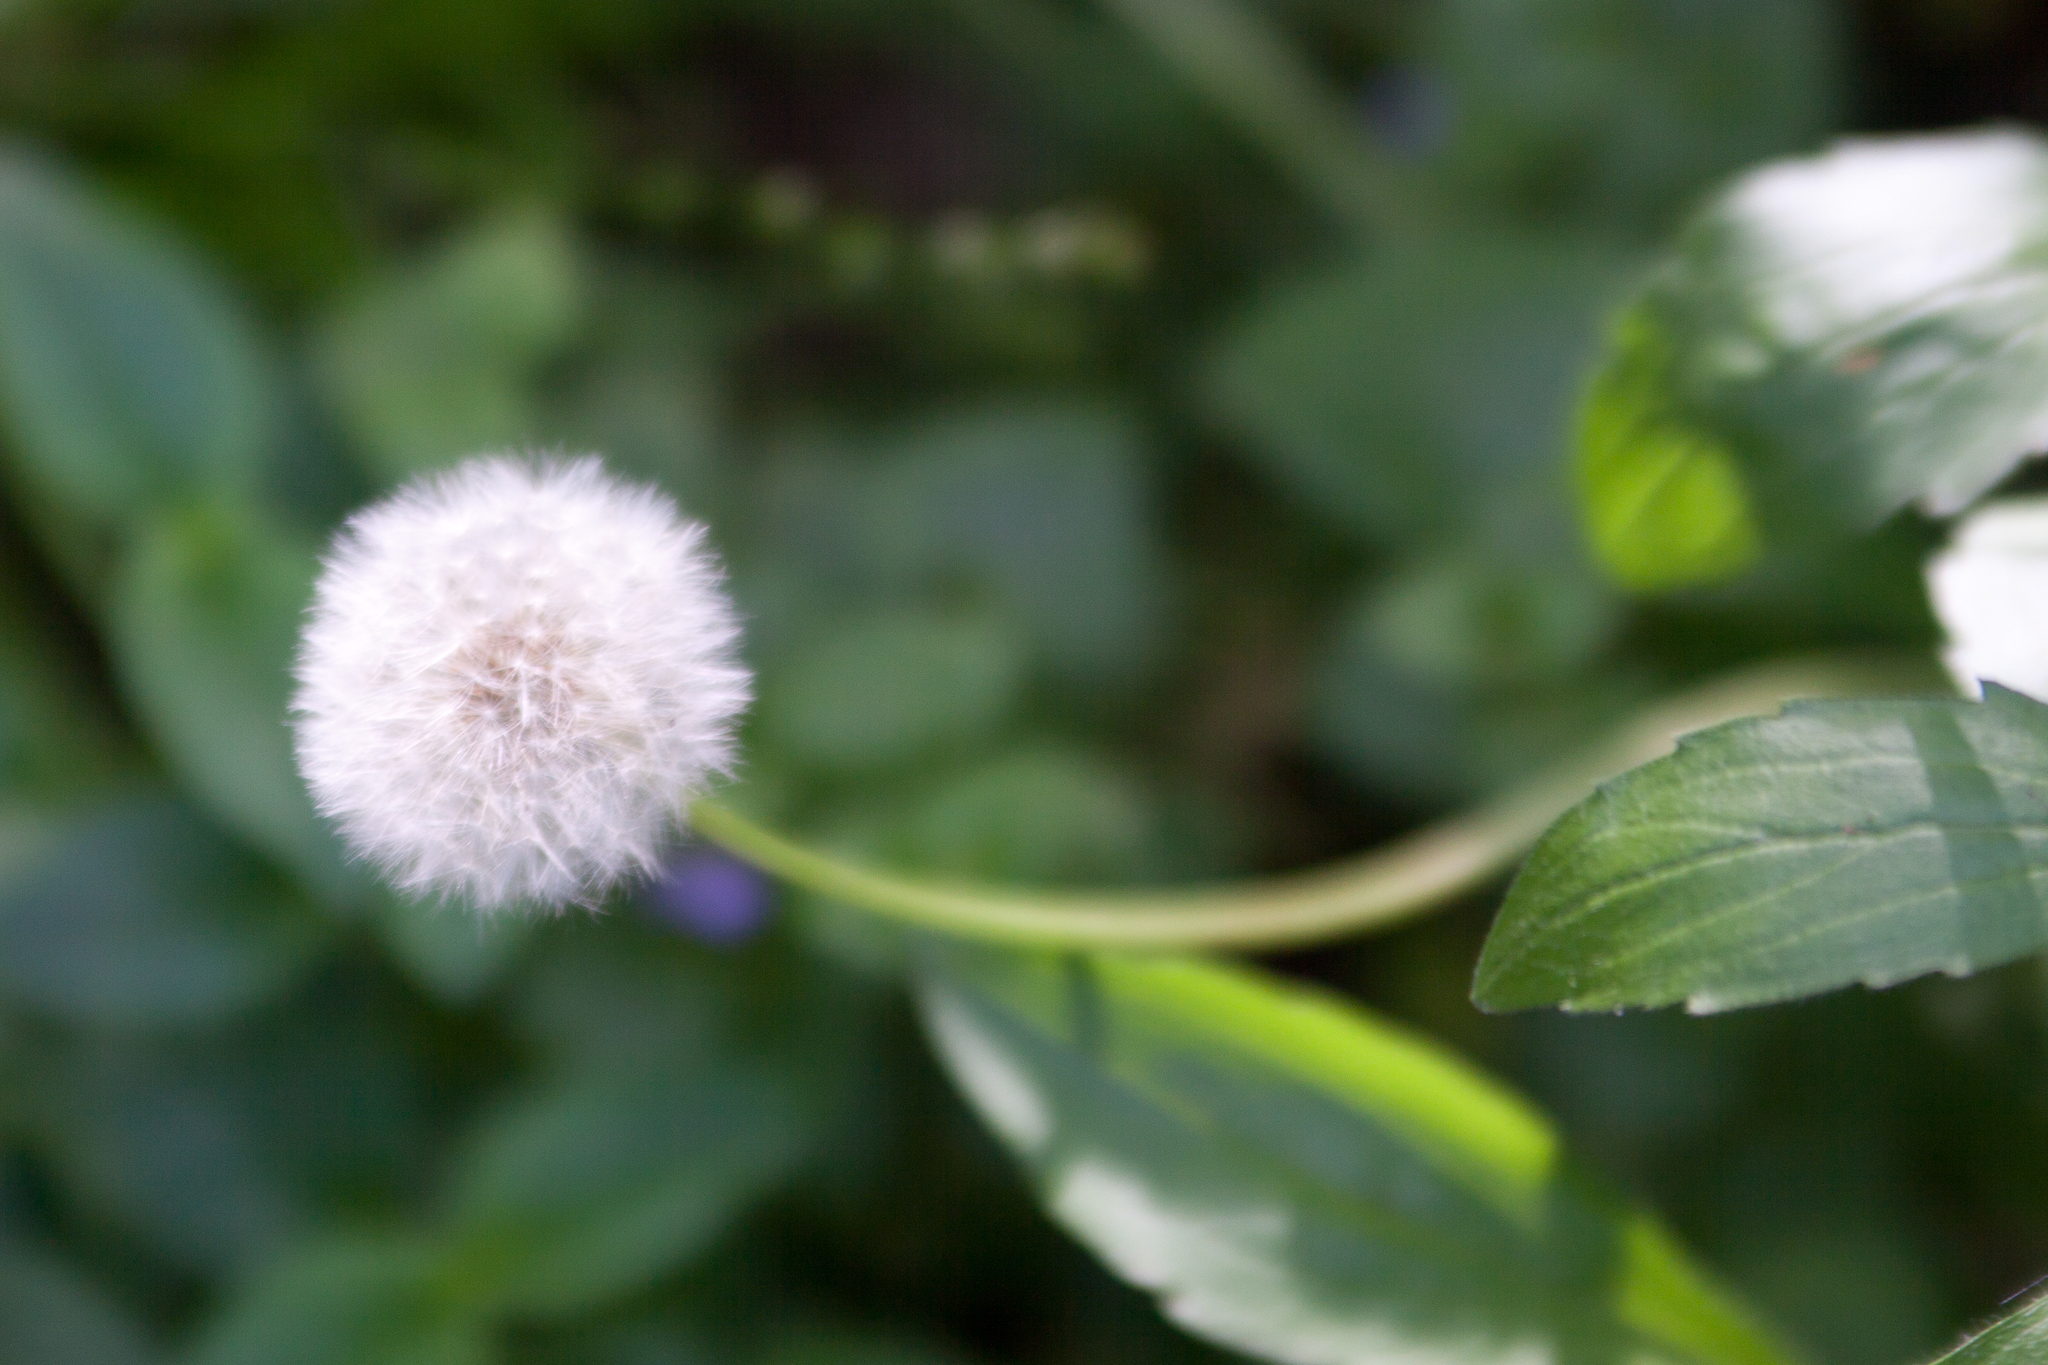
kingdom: Plantae
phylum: Tracheophyta
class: Magnoliopsida
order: Asterales
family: Asteraceae
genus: Taraxacum
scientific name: Taraxacum officinale
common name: Common dandelion
